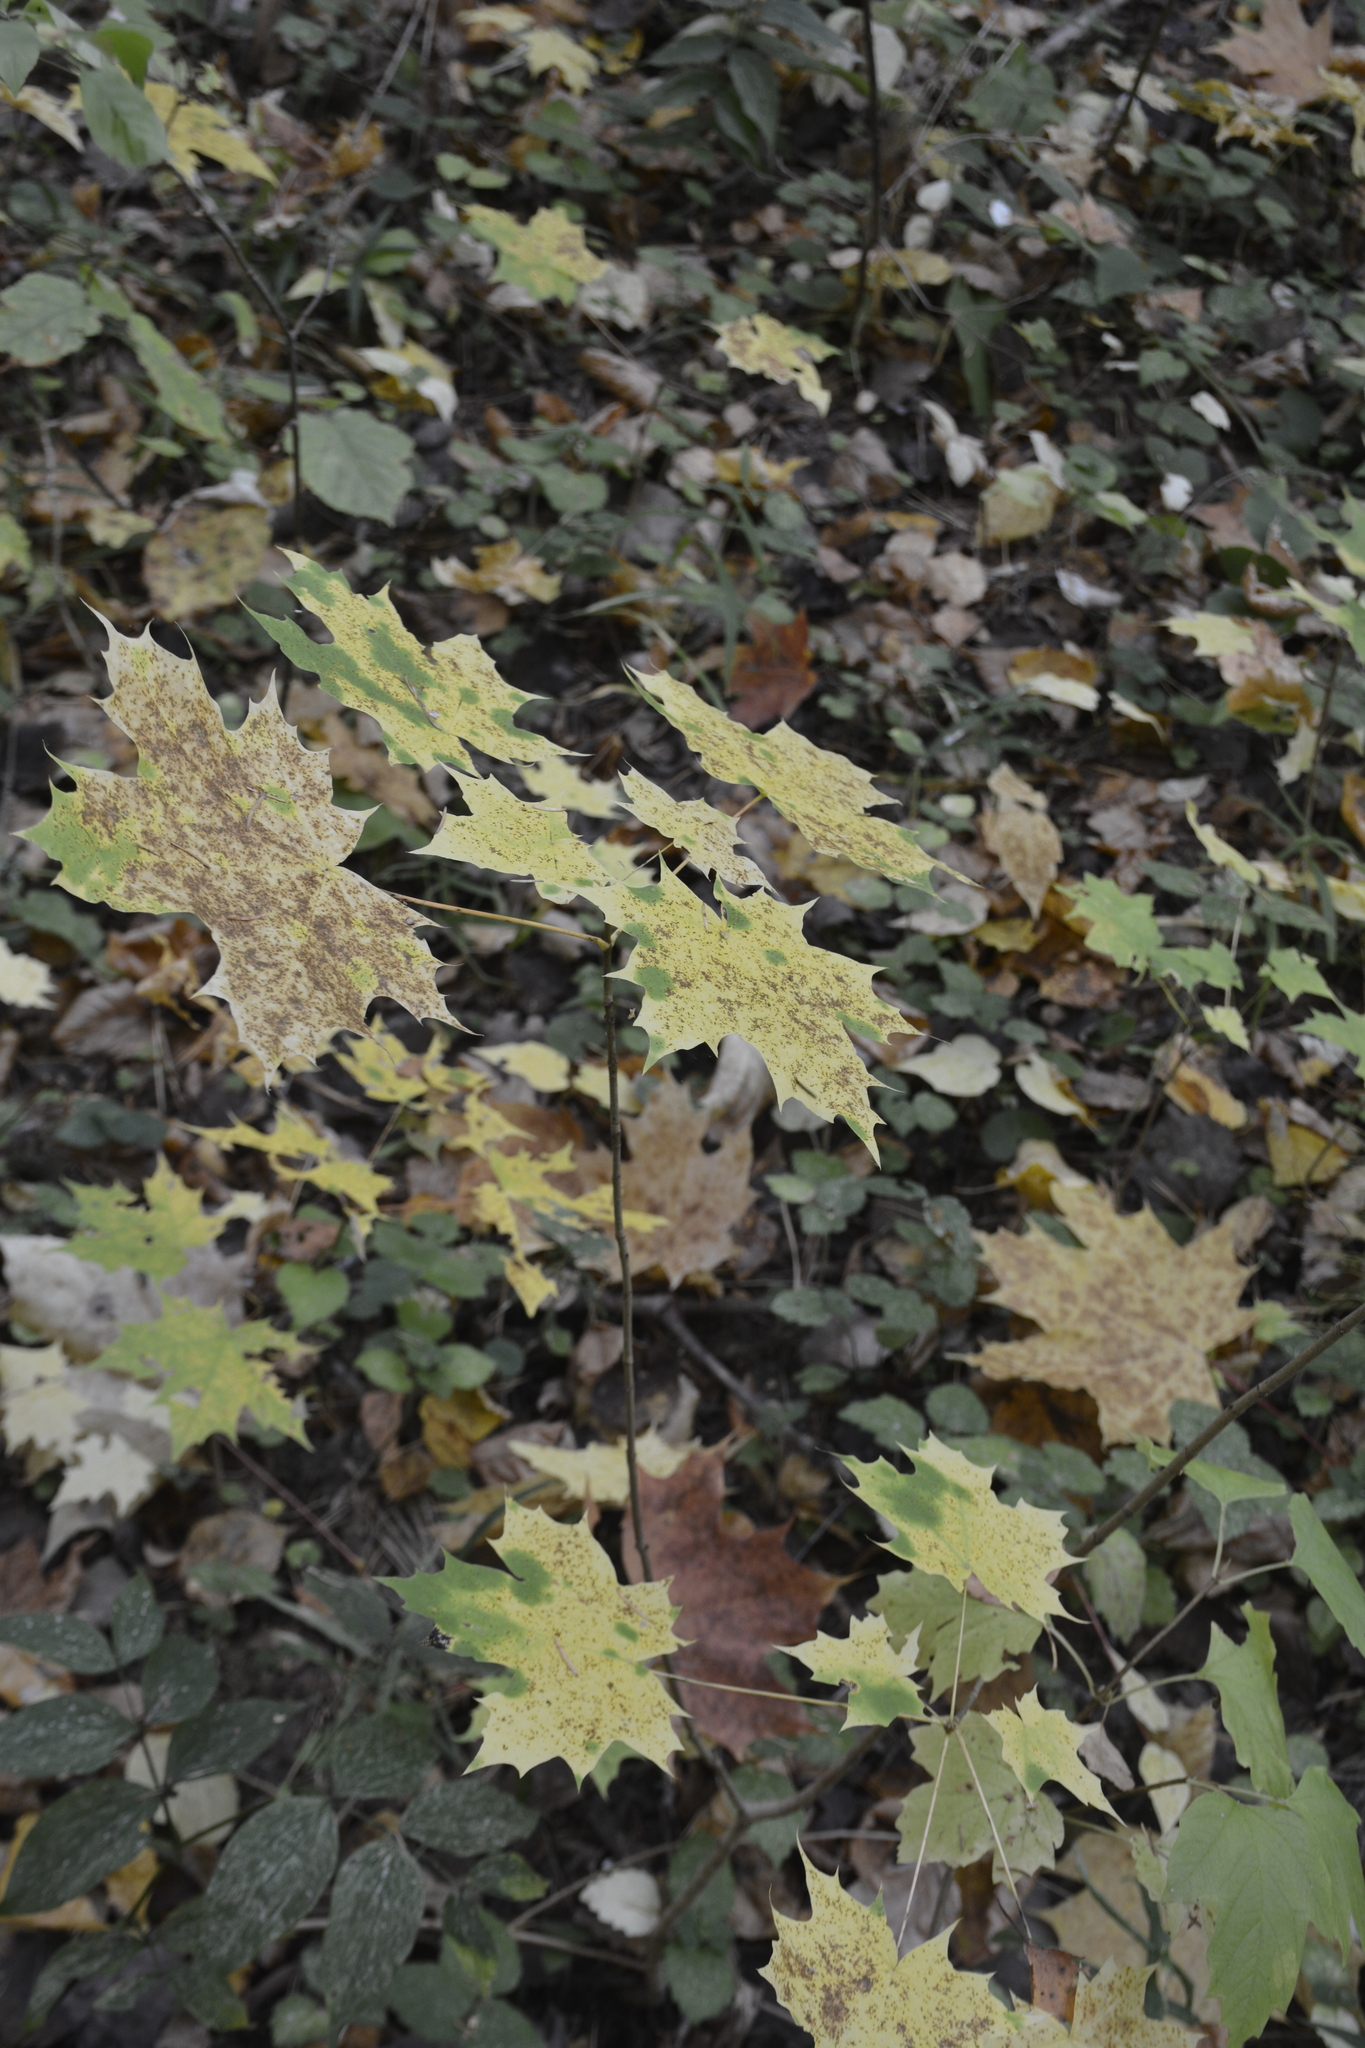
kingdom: Plantae
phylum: Tracheophyta
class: Magnoliopsida
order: Sapindales
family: Sapindaceae
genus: Acer
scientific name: Acer platanoides
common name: Norway maple
